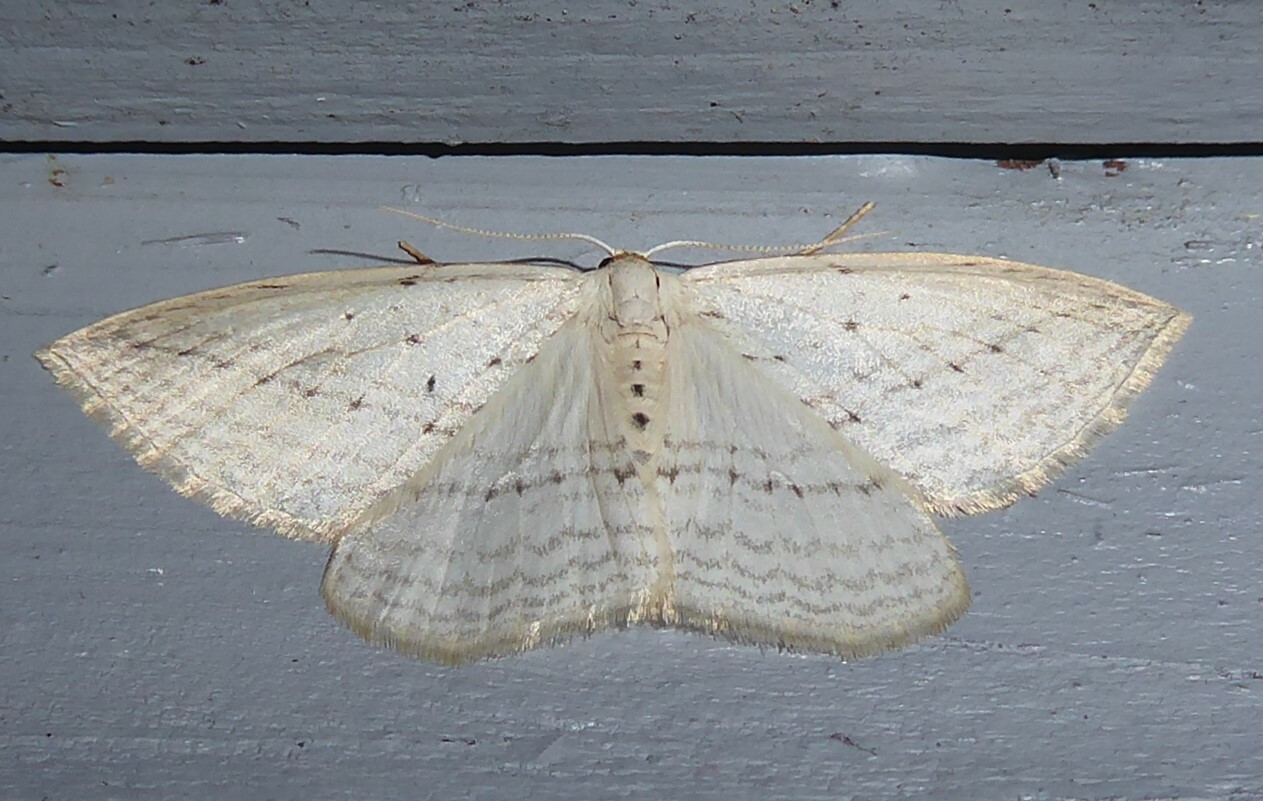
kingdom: Animalia
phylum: Arthropoda
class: Insecta
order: Lepidoptera
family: Geometridae
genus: Orthoclydon
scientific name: Orthoclydon praefectata
